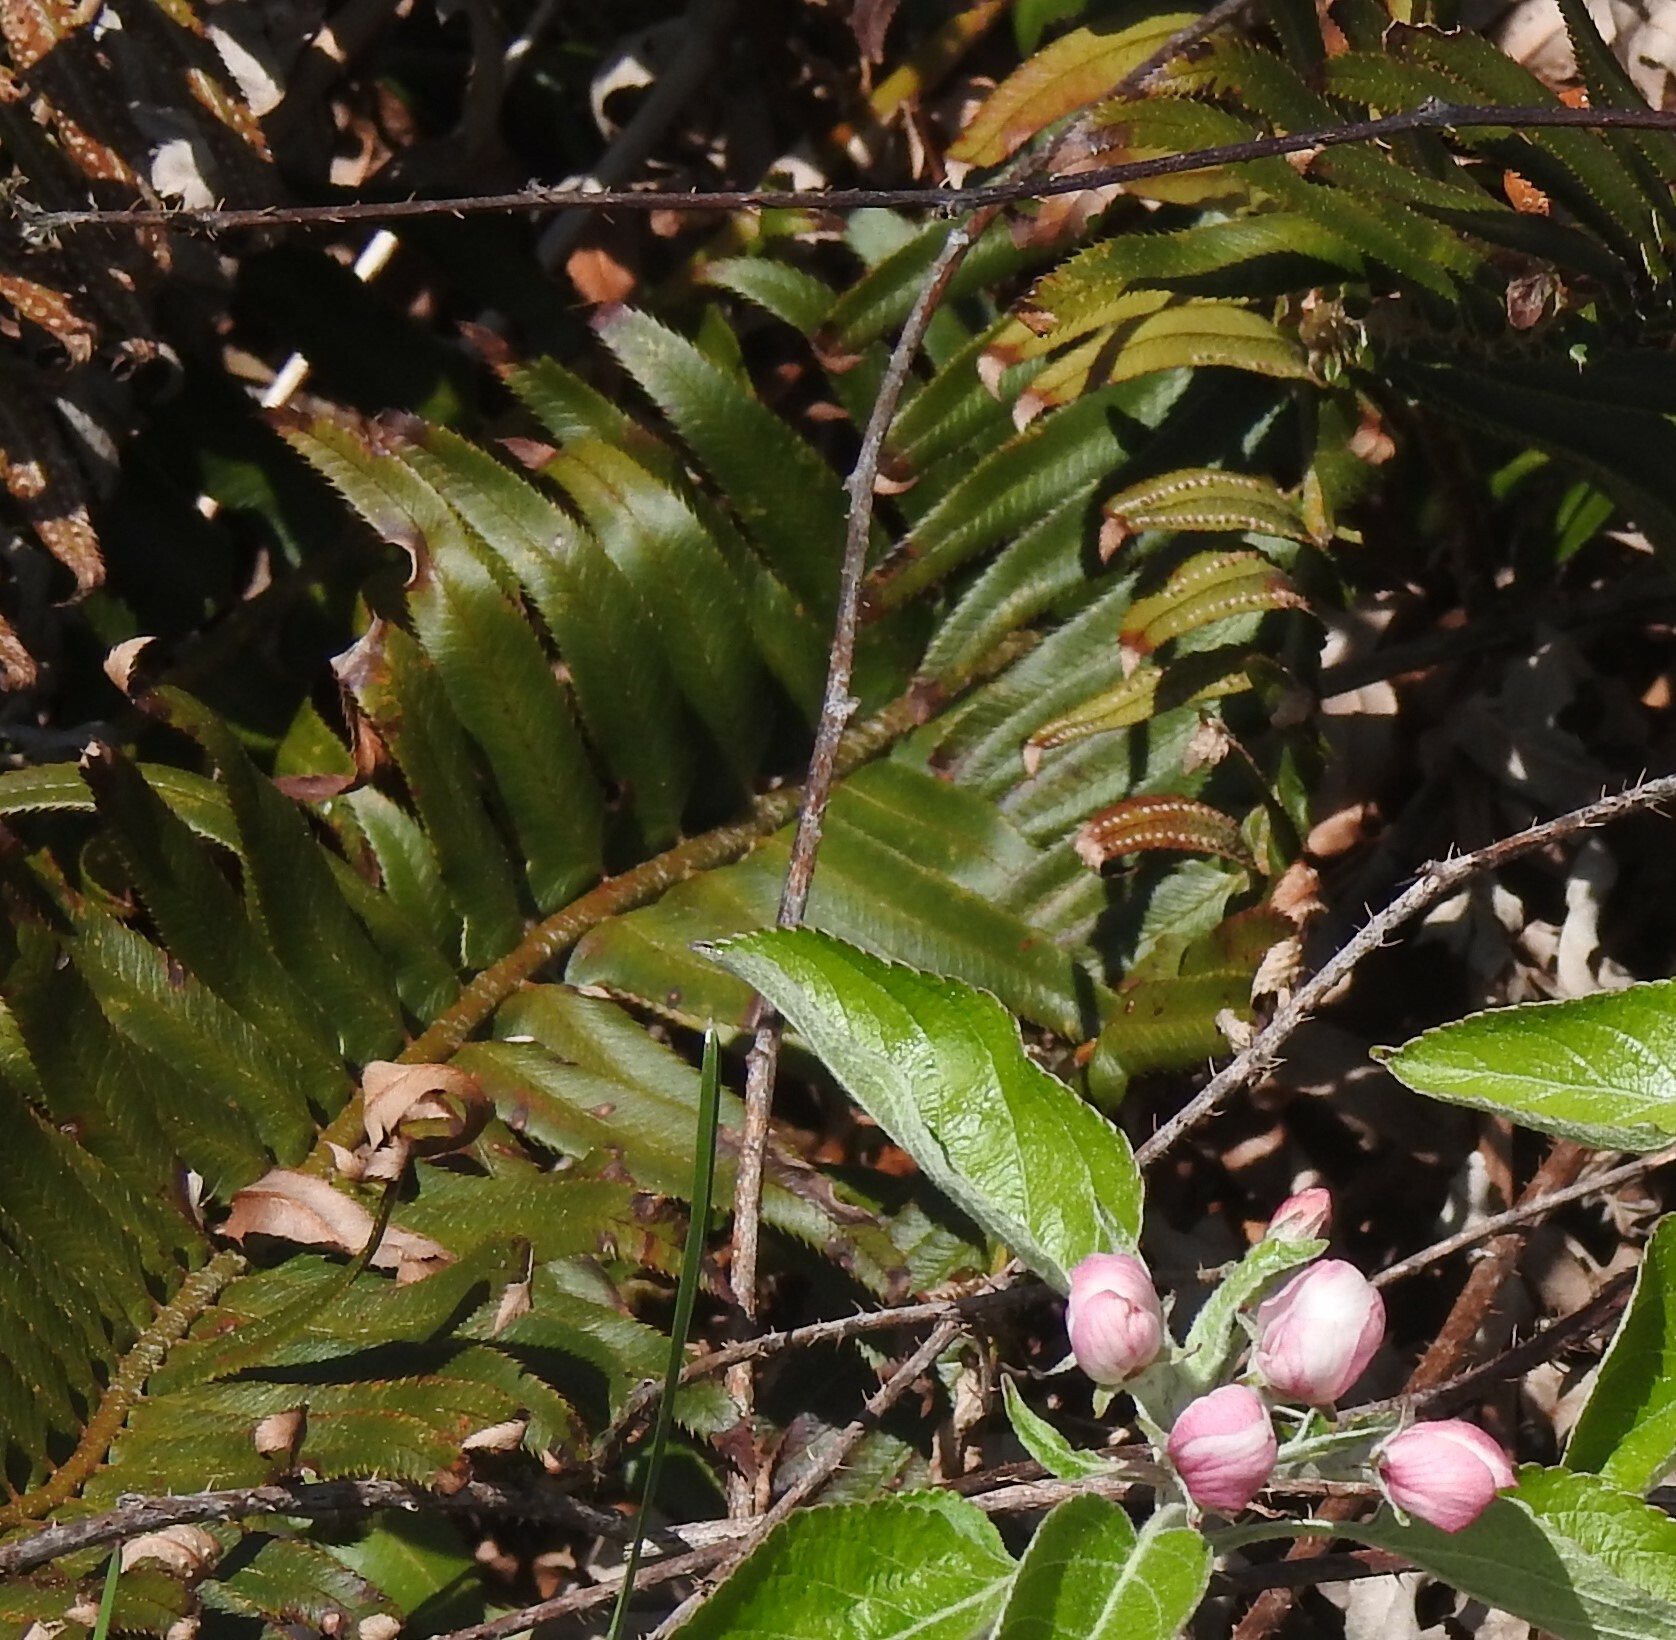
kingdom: Plantae
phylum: Tracheophyta
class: Polypodiopsida
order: Polypodiales
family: Dryopteridaceae
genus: Polystichum
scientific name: Polystichum munitum
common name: Western sword-fern
